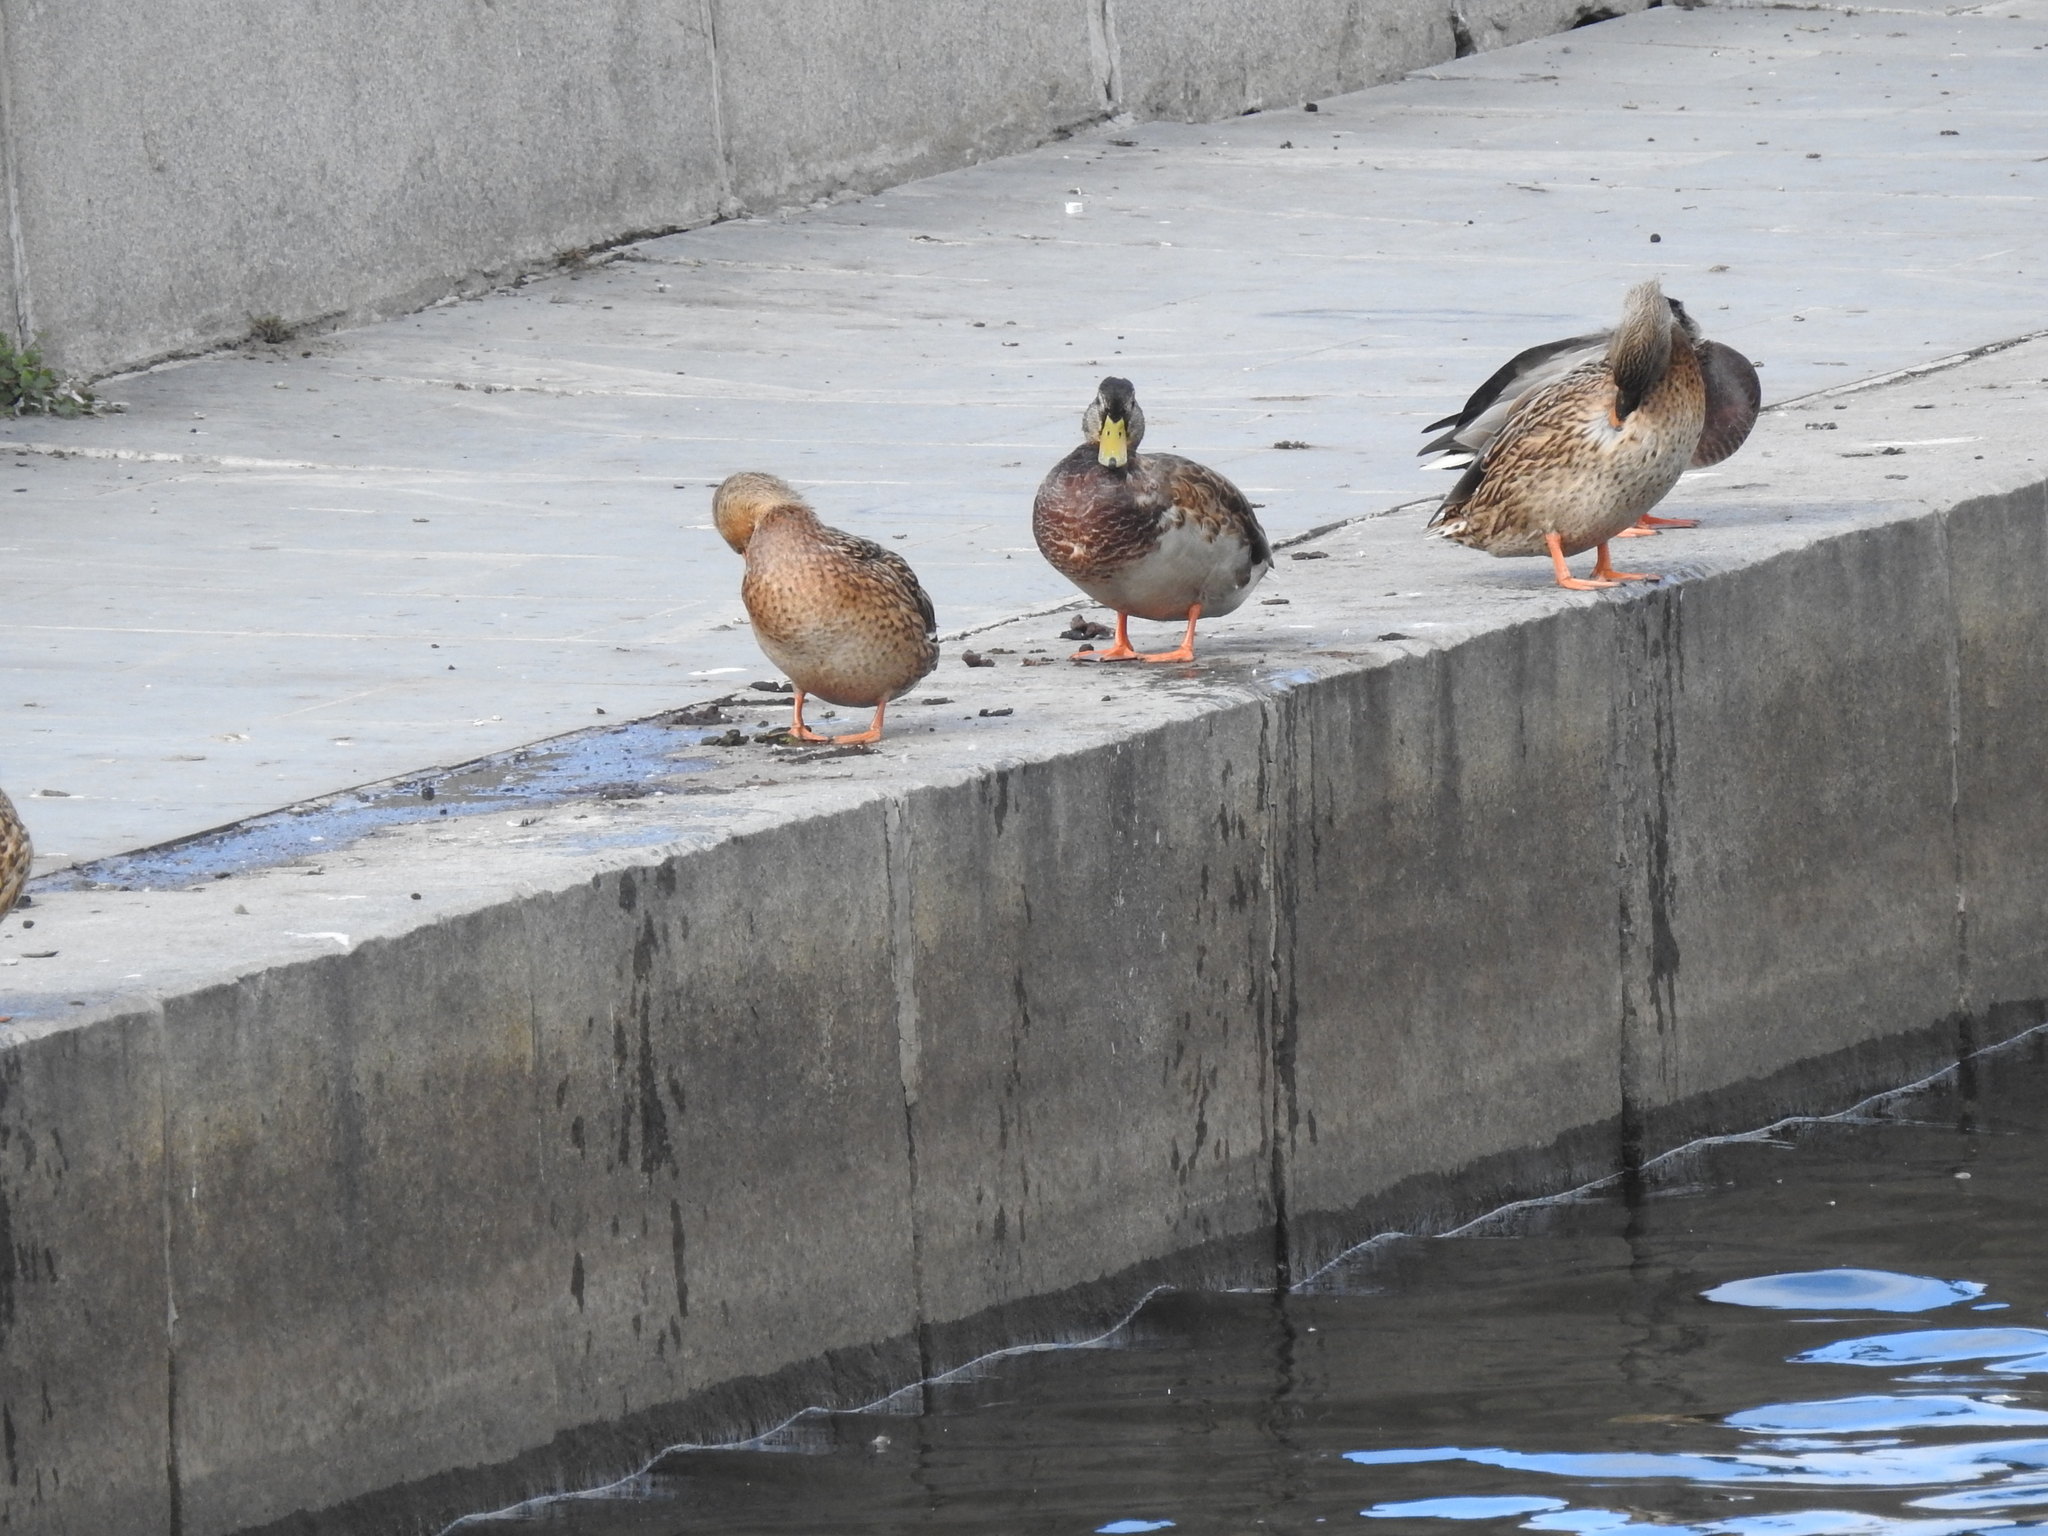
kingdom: Animalia
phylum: Chordata
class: Aves
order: Anseriformes
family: Anatidae
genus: Anas
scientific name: Anas platyrhynchos
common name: Mallard
